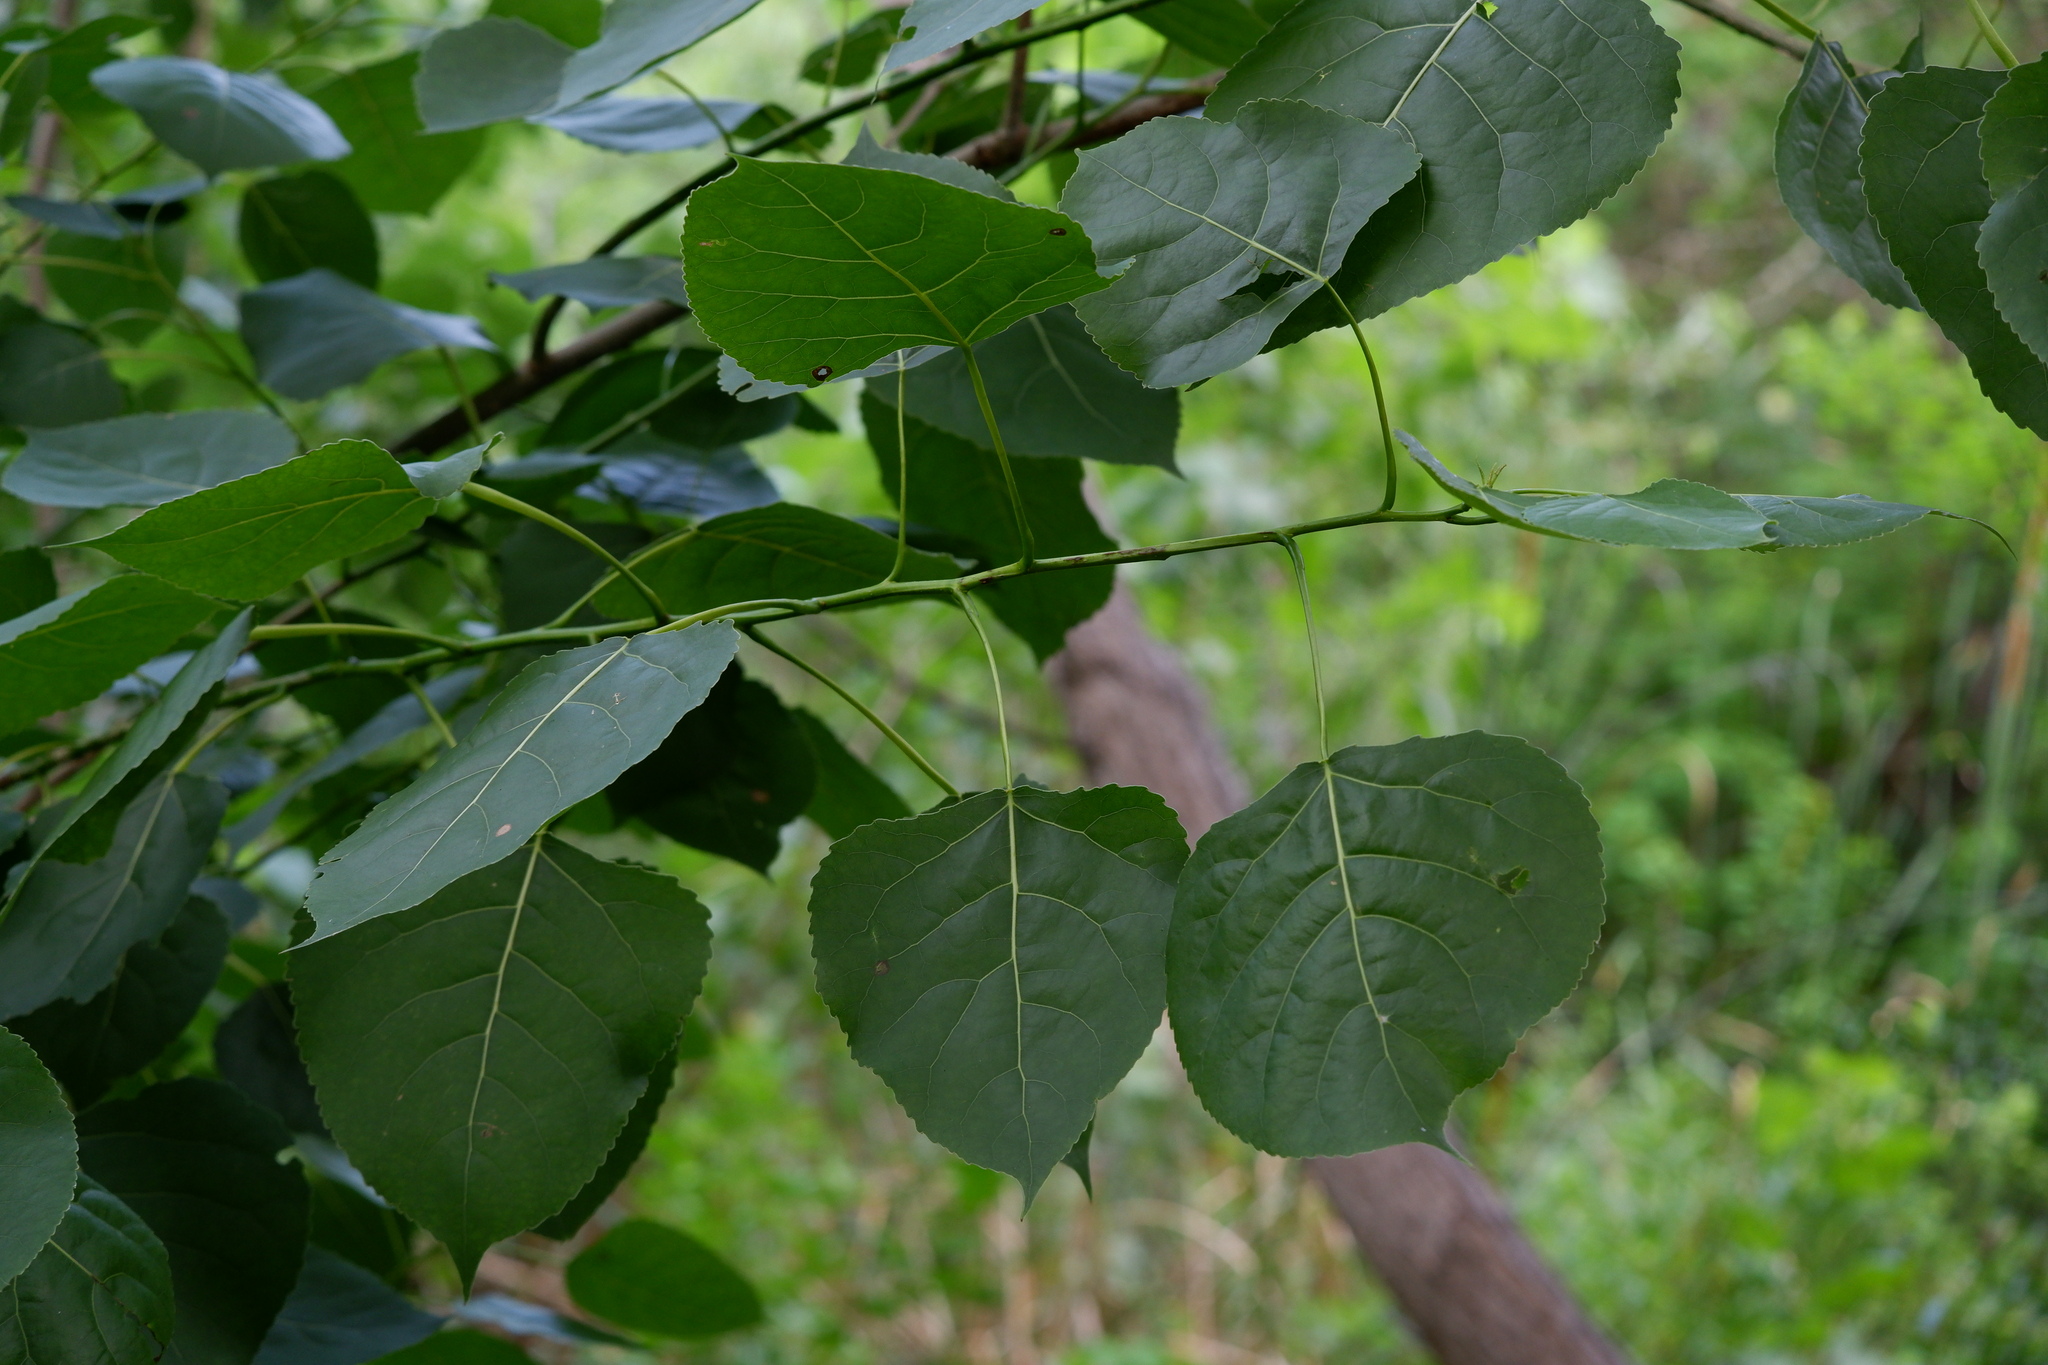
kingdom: Plantae
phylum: Tracheophyta
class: Magnoliopsida
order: Malpighiales
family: Salicaceae
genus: Populus
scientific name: Populus deltoides
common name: Eastern cottonwood
